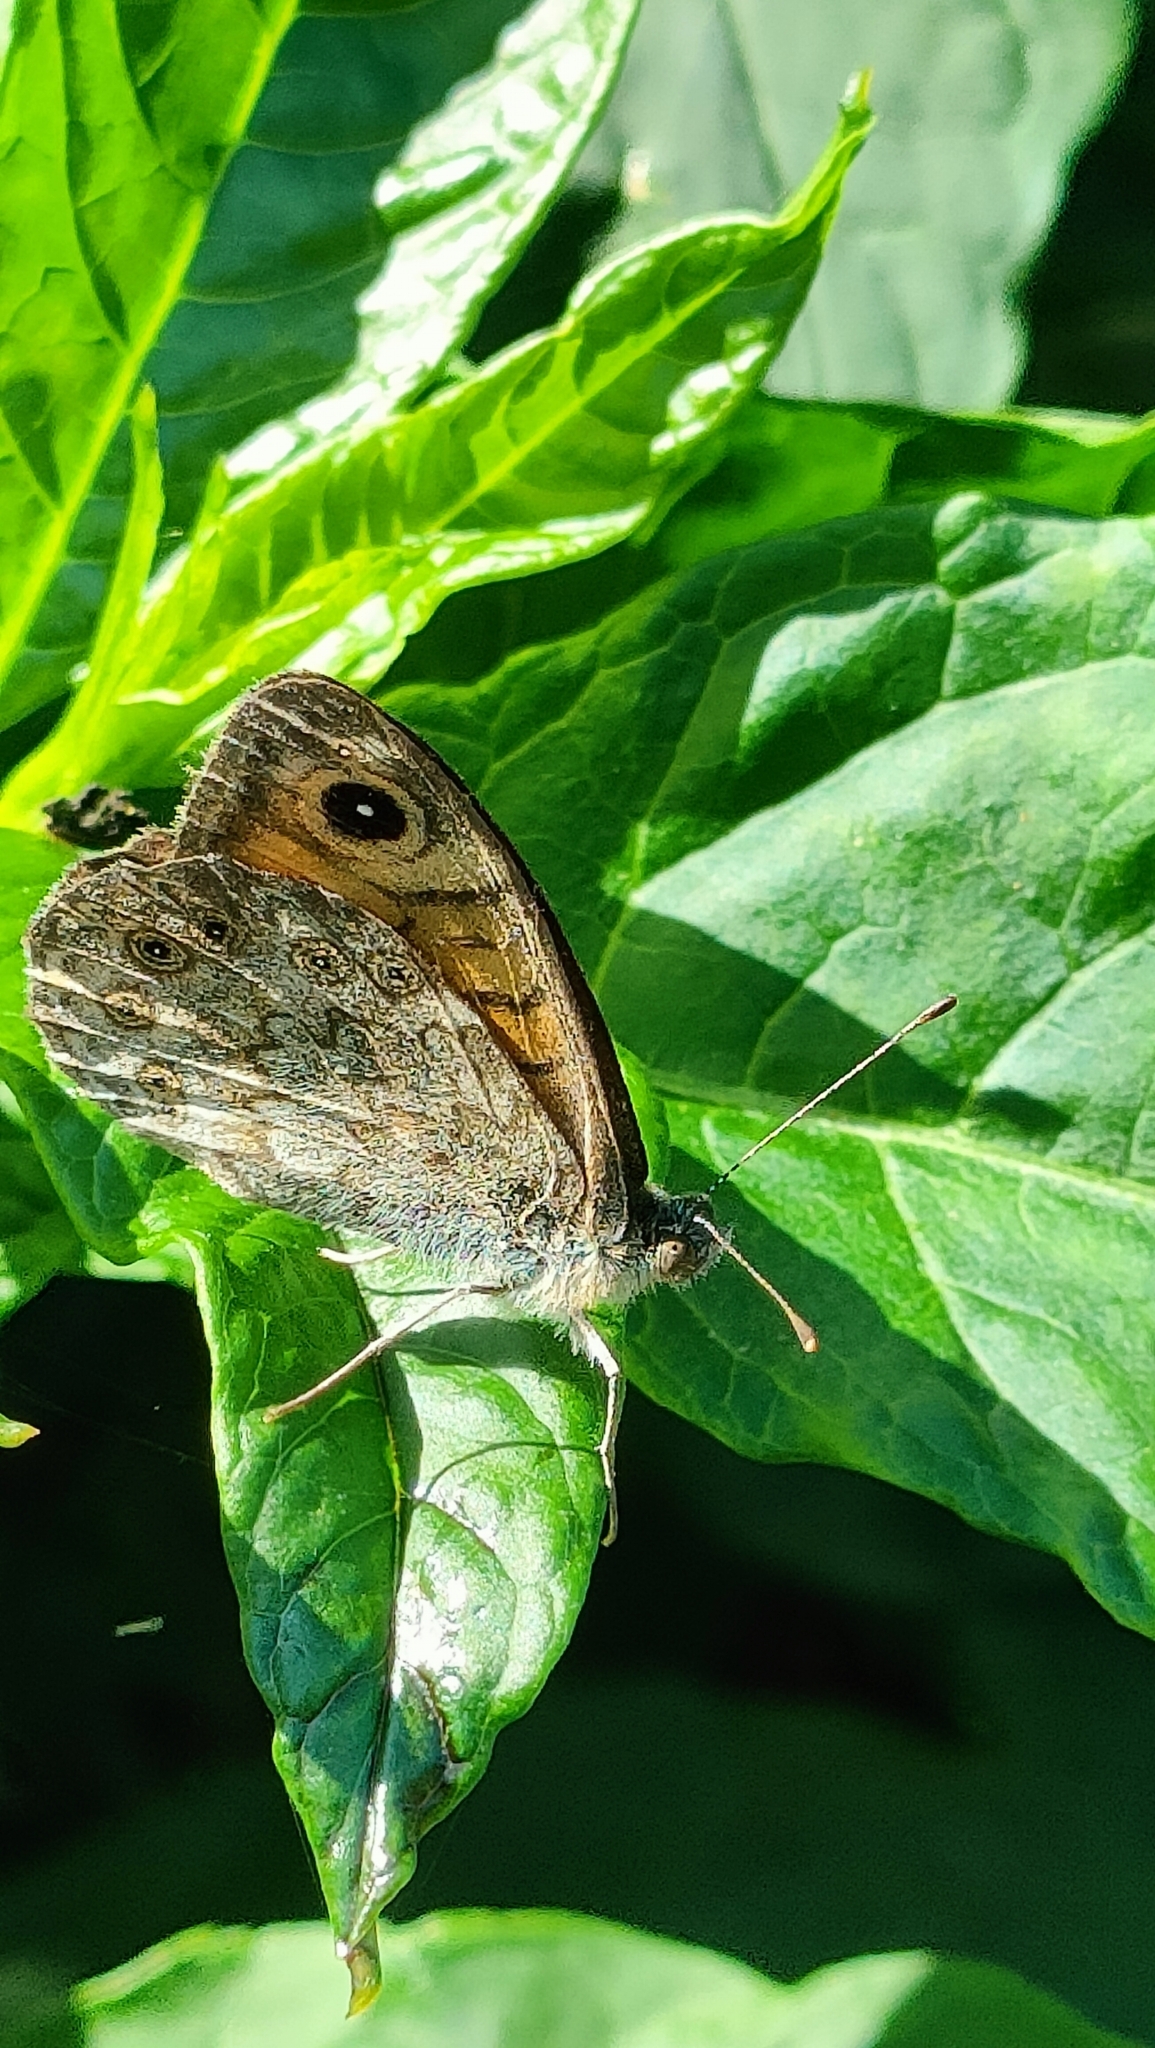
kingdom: Animalia
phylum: Arthropoda
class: Insecta
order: Lepidoptera
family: Nymphalidae
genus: Pararge
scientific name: Pararge Lasiommata megera
